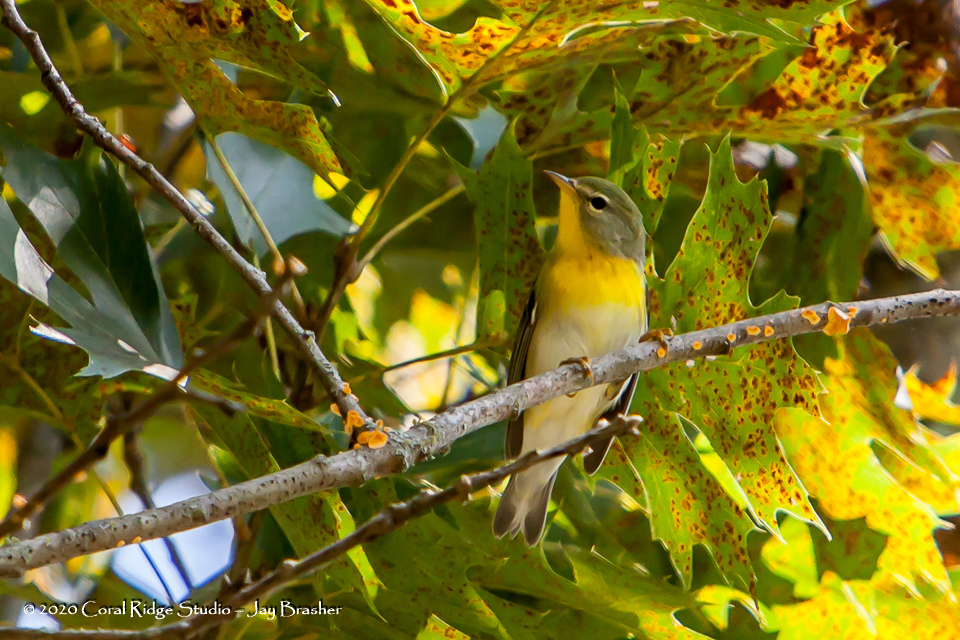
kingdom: Animalia
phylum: Chordata
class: Aves
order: Passeriformes
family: Parulidae
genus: Setophaga
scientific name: Setophaga americana
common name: Northern parula
